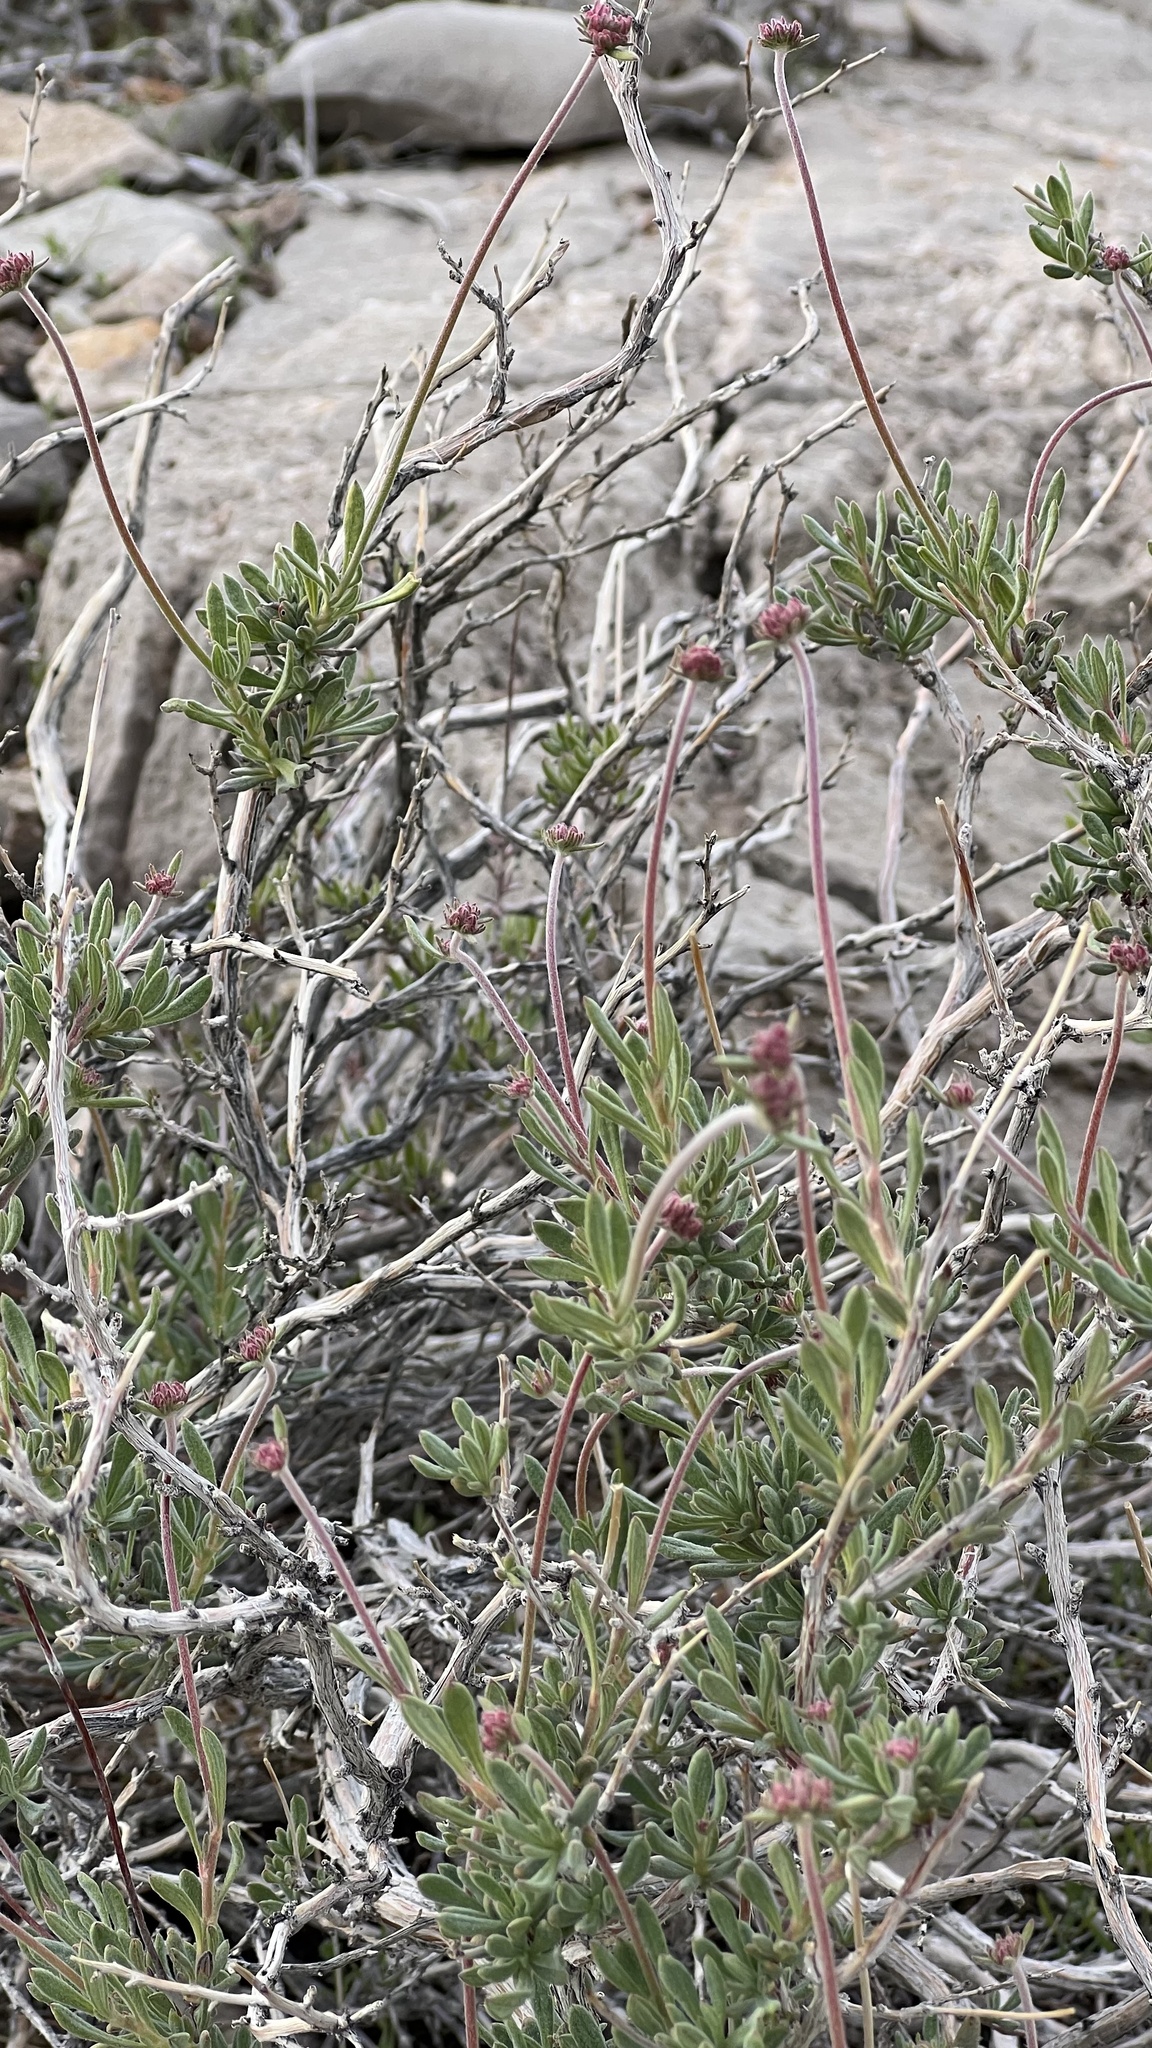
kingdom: Plantae
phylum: Tracheophyta
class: Magnoliopsida
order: Caryophyllales
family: Polygonaceae
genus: Eriogonum
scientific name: Eriogonum fasciculatum
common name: California wild buckwheat
